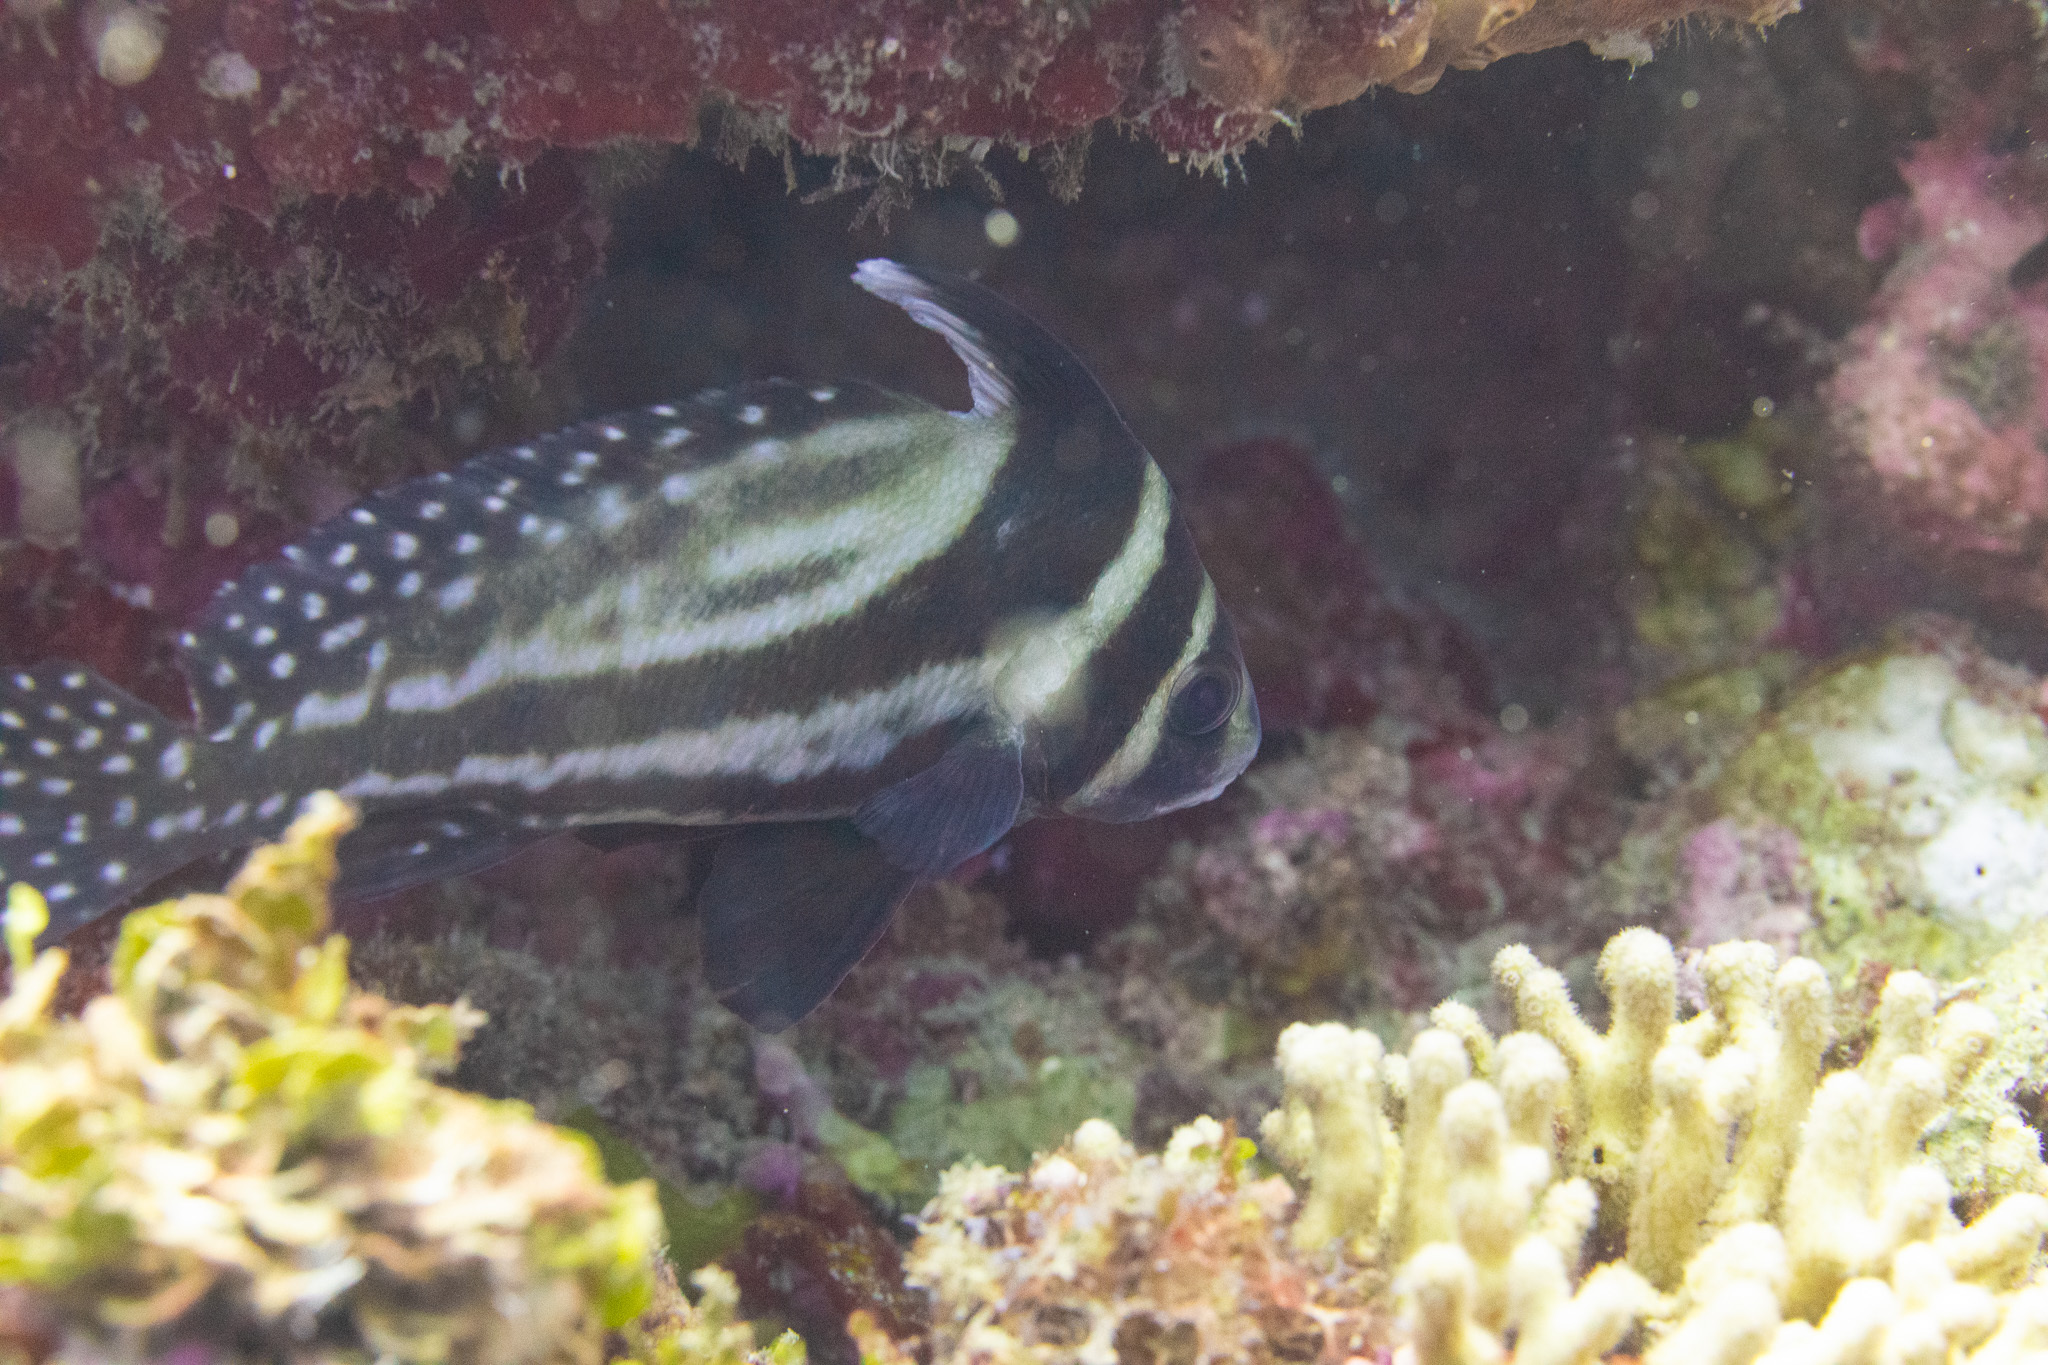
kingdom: Animalia
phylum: Chordata
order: Perciformes
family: Sciaenidae
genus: Equetus
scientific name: Equetus punctatus
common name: Spotted drum
